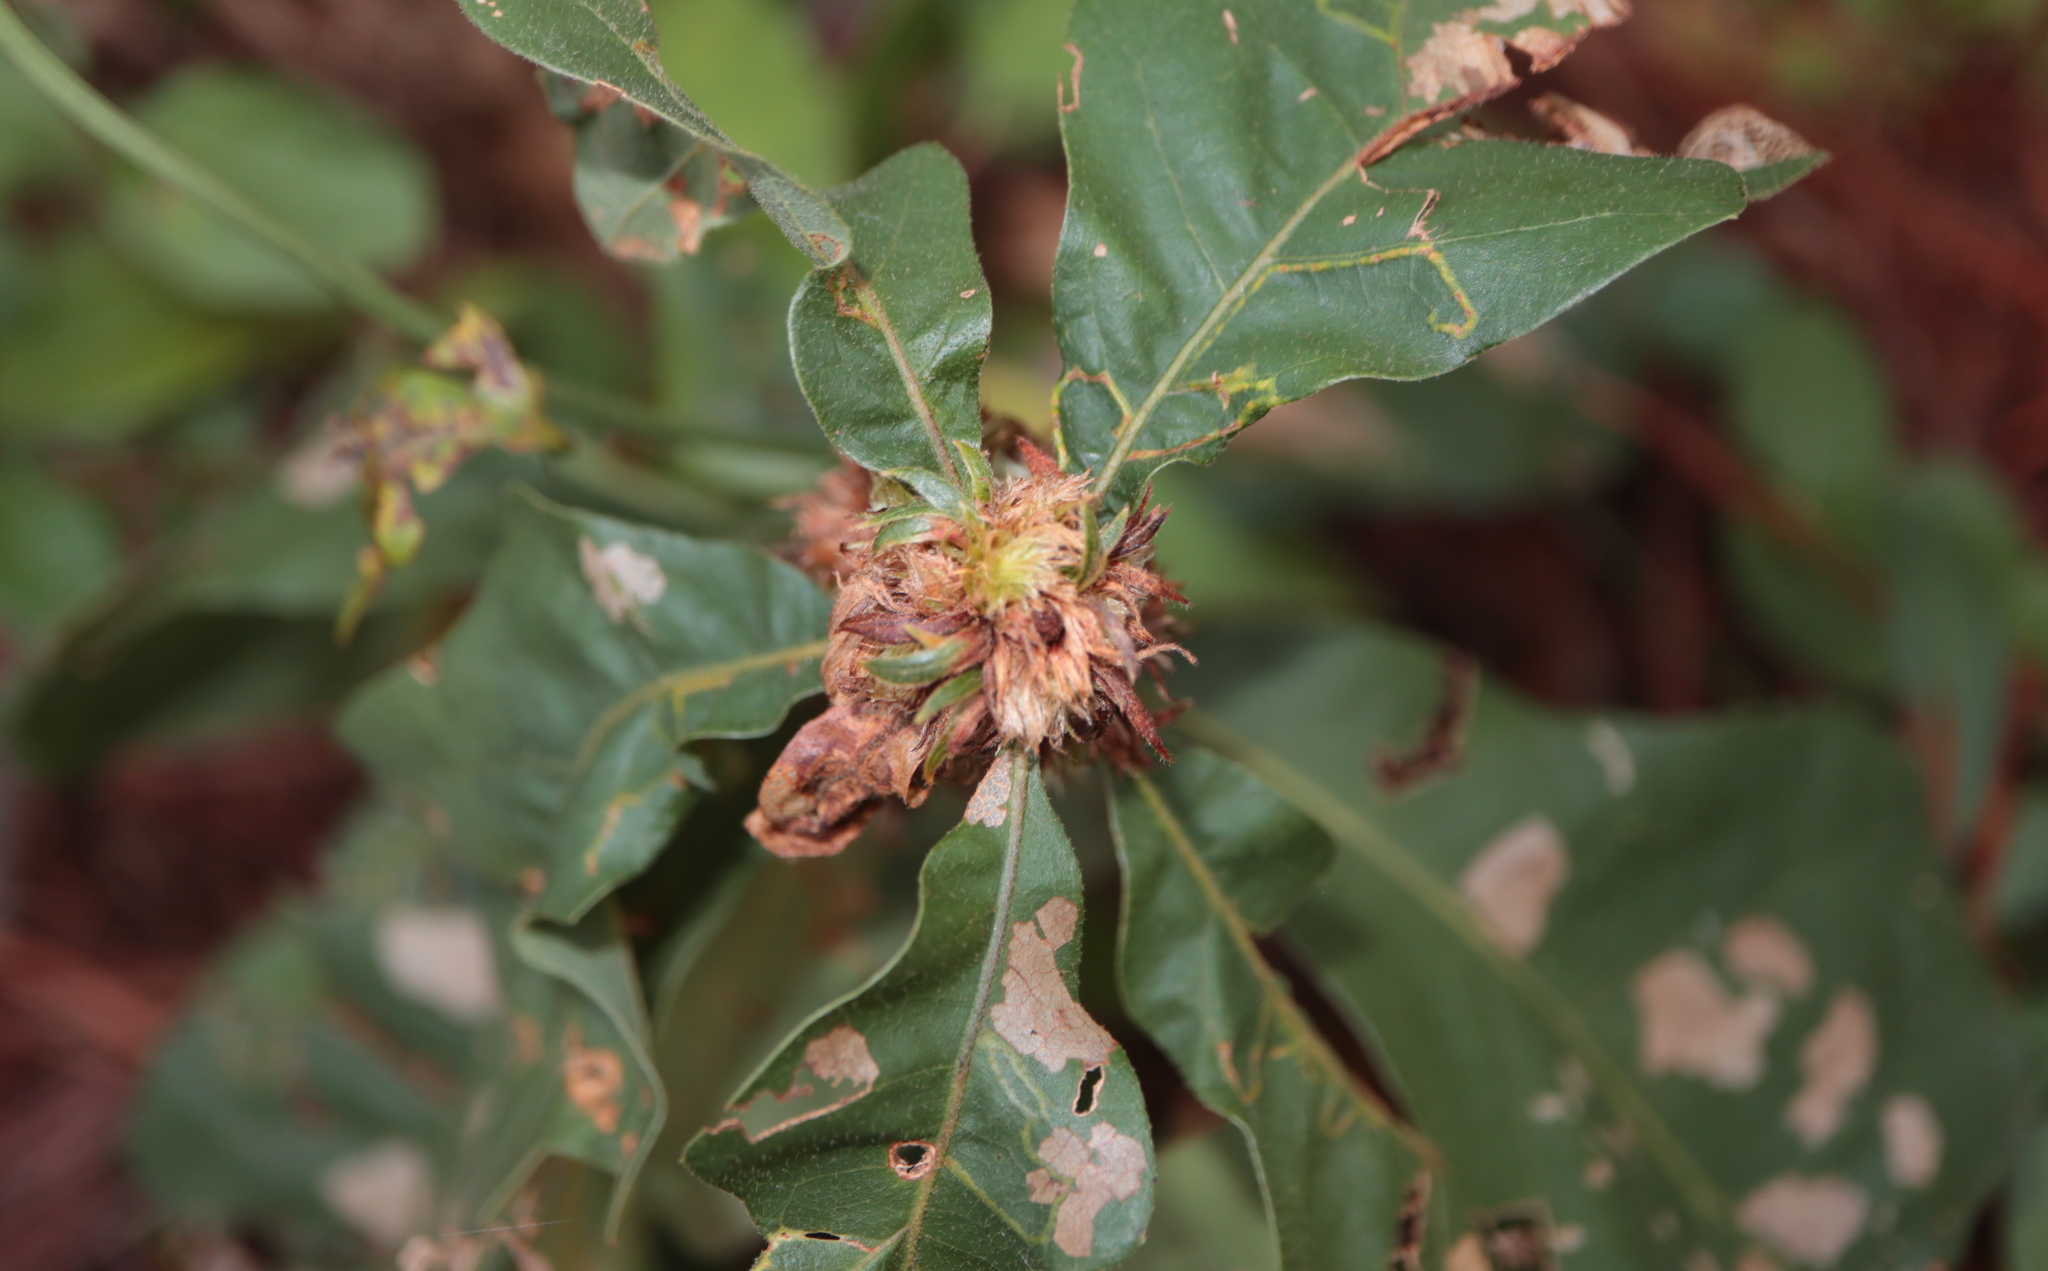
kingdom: Animalia
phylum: Arthropoda
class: Insecta
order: Hymenoptera
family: Cynipidae
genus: Andricus
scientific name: Andricus
